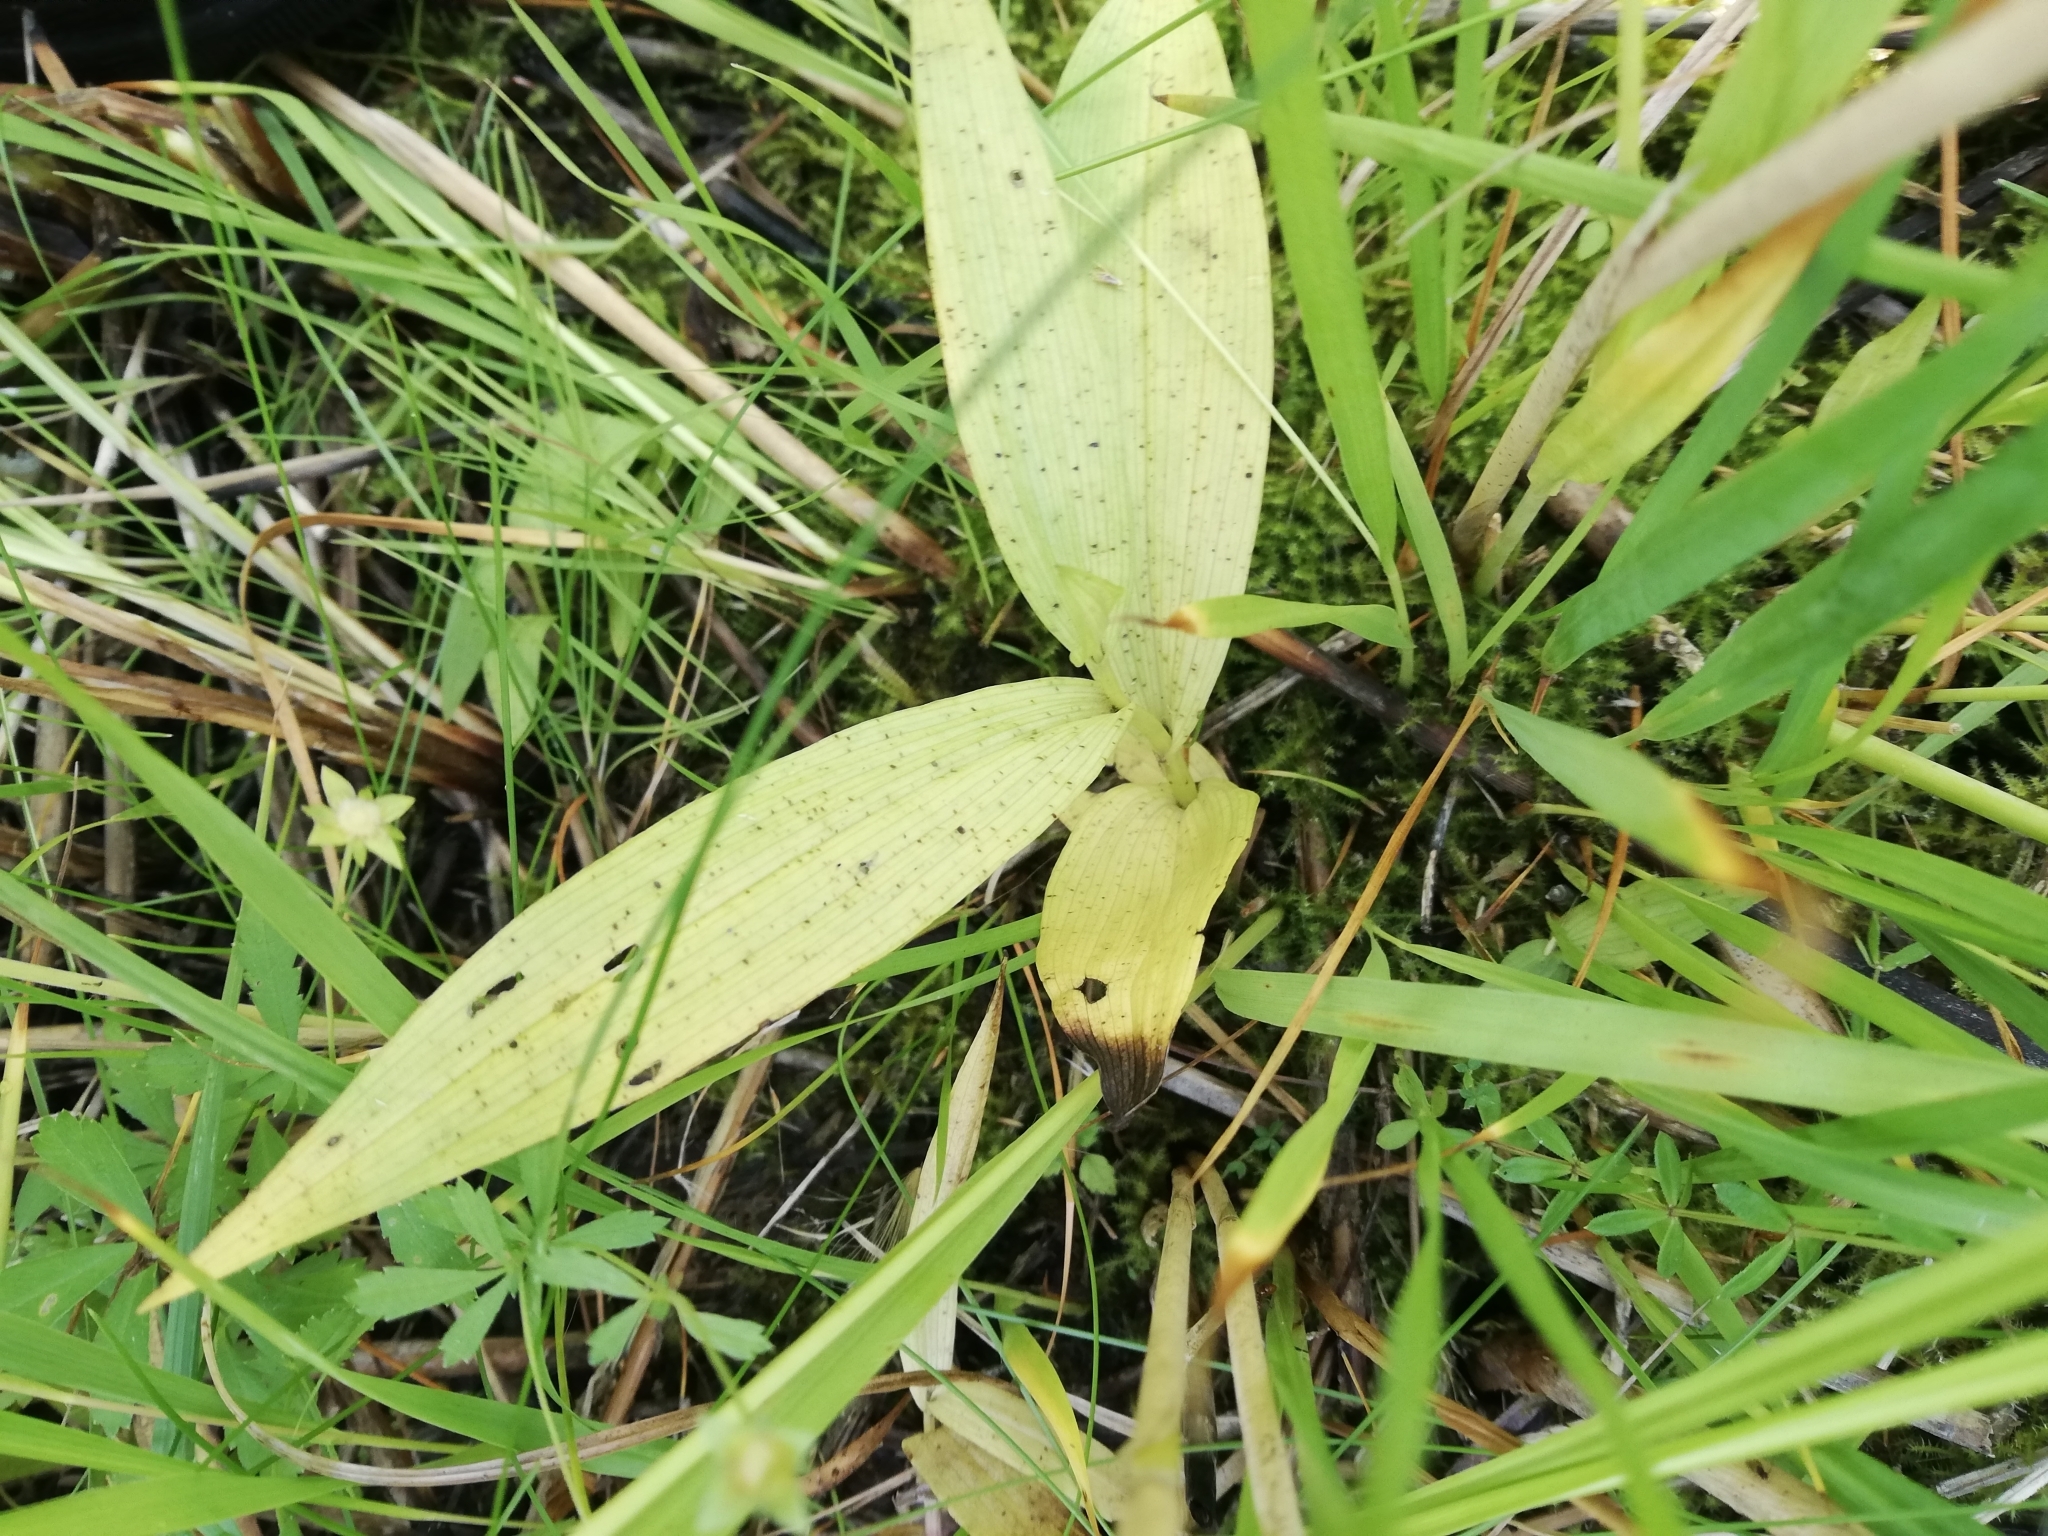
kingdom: Plantae
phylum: Tracheophyta
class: Liliopsida
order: Asparagales
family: Orchidaceae
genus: Epipactis
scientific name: Epipactis palustris
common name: Marsh helleborine
